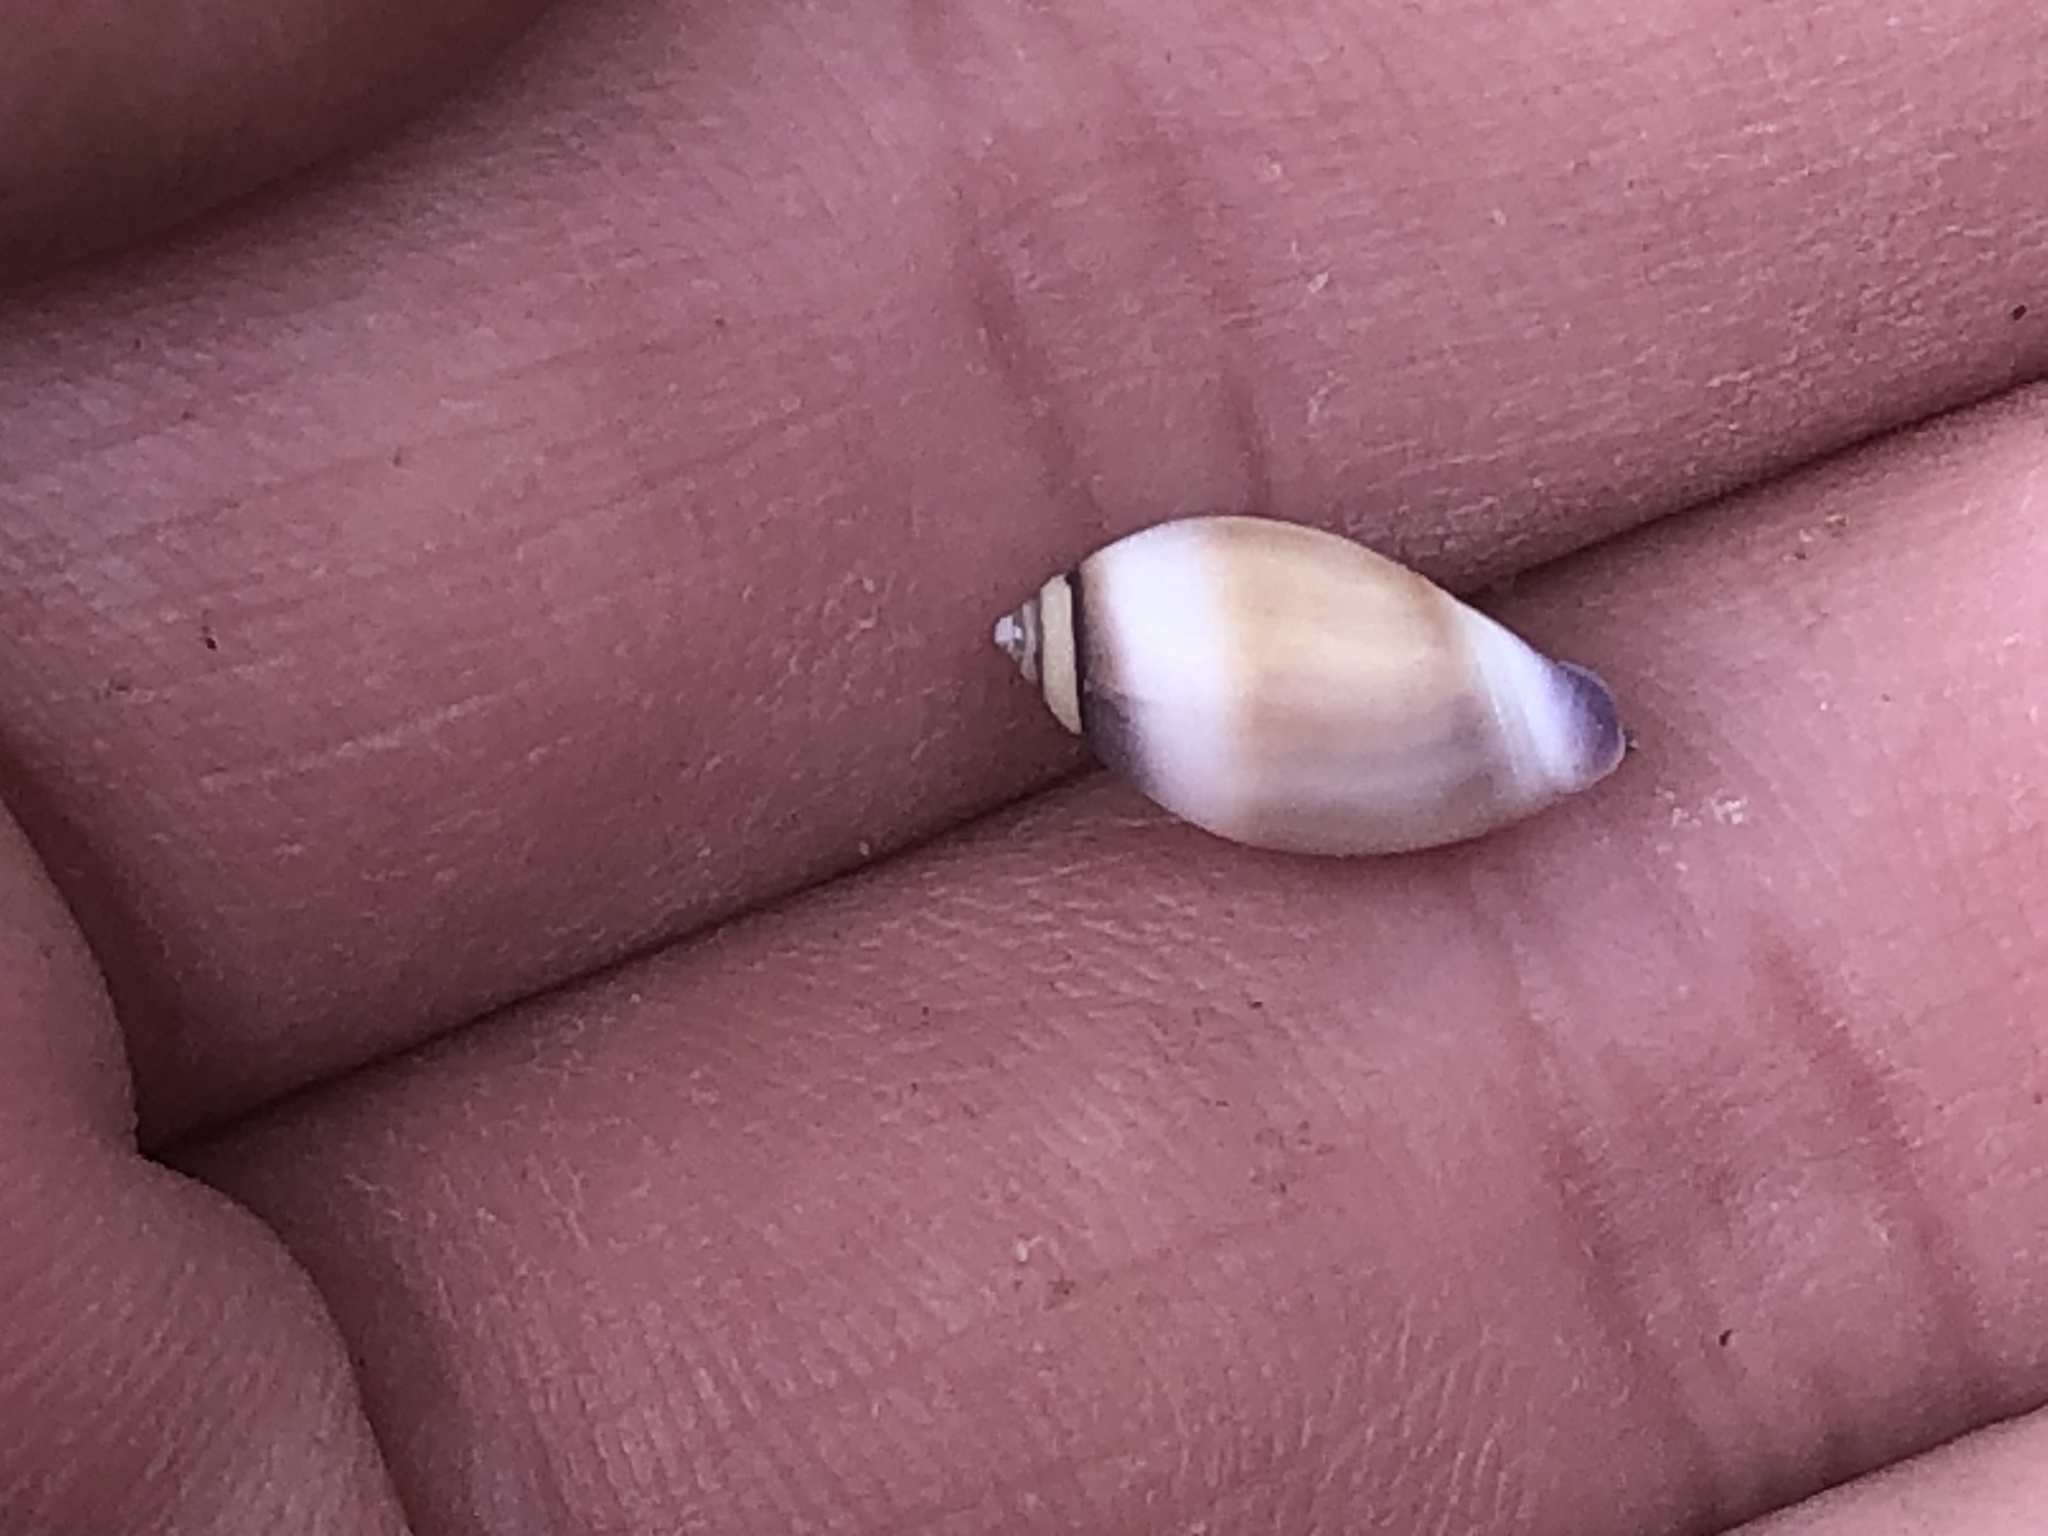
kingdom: Animalia
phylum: Mollusca
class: Gastropoda
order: Neogastropoda
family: Olividae
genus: Callianax
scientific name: Callianax biplicata
